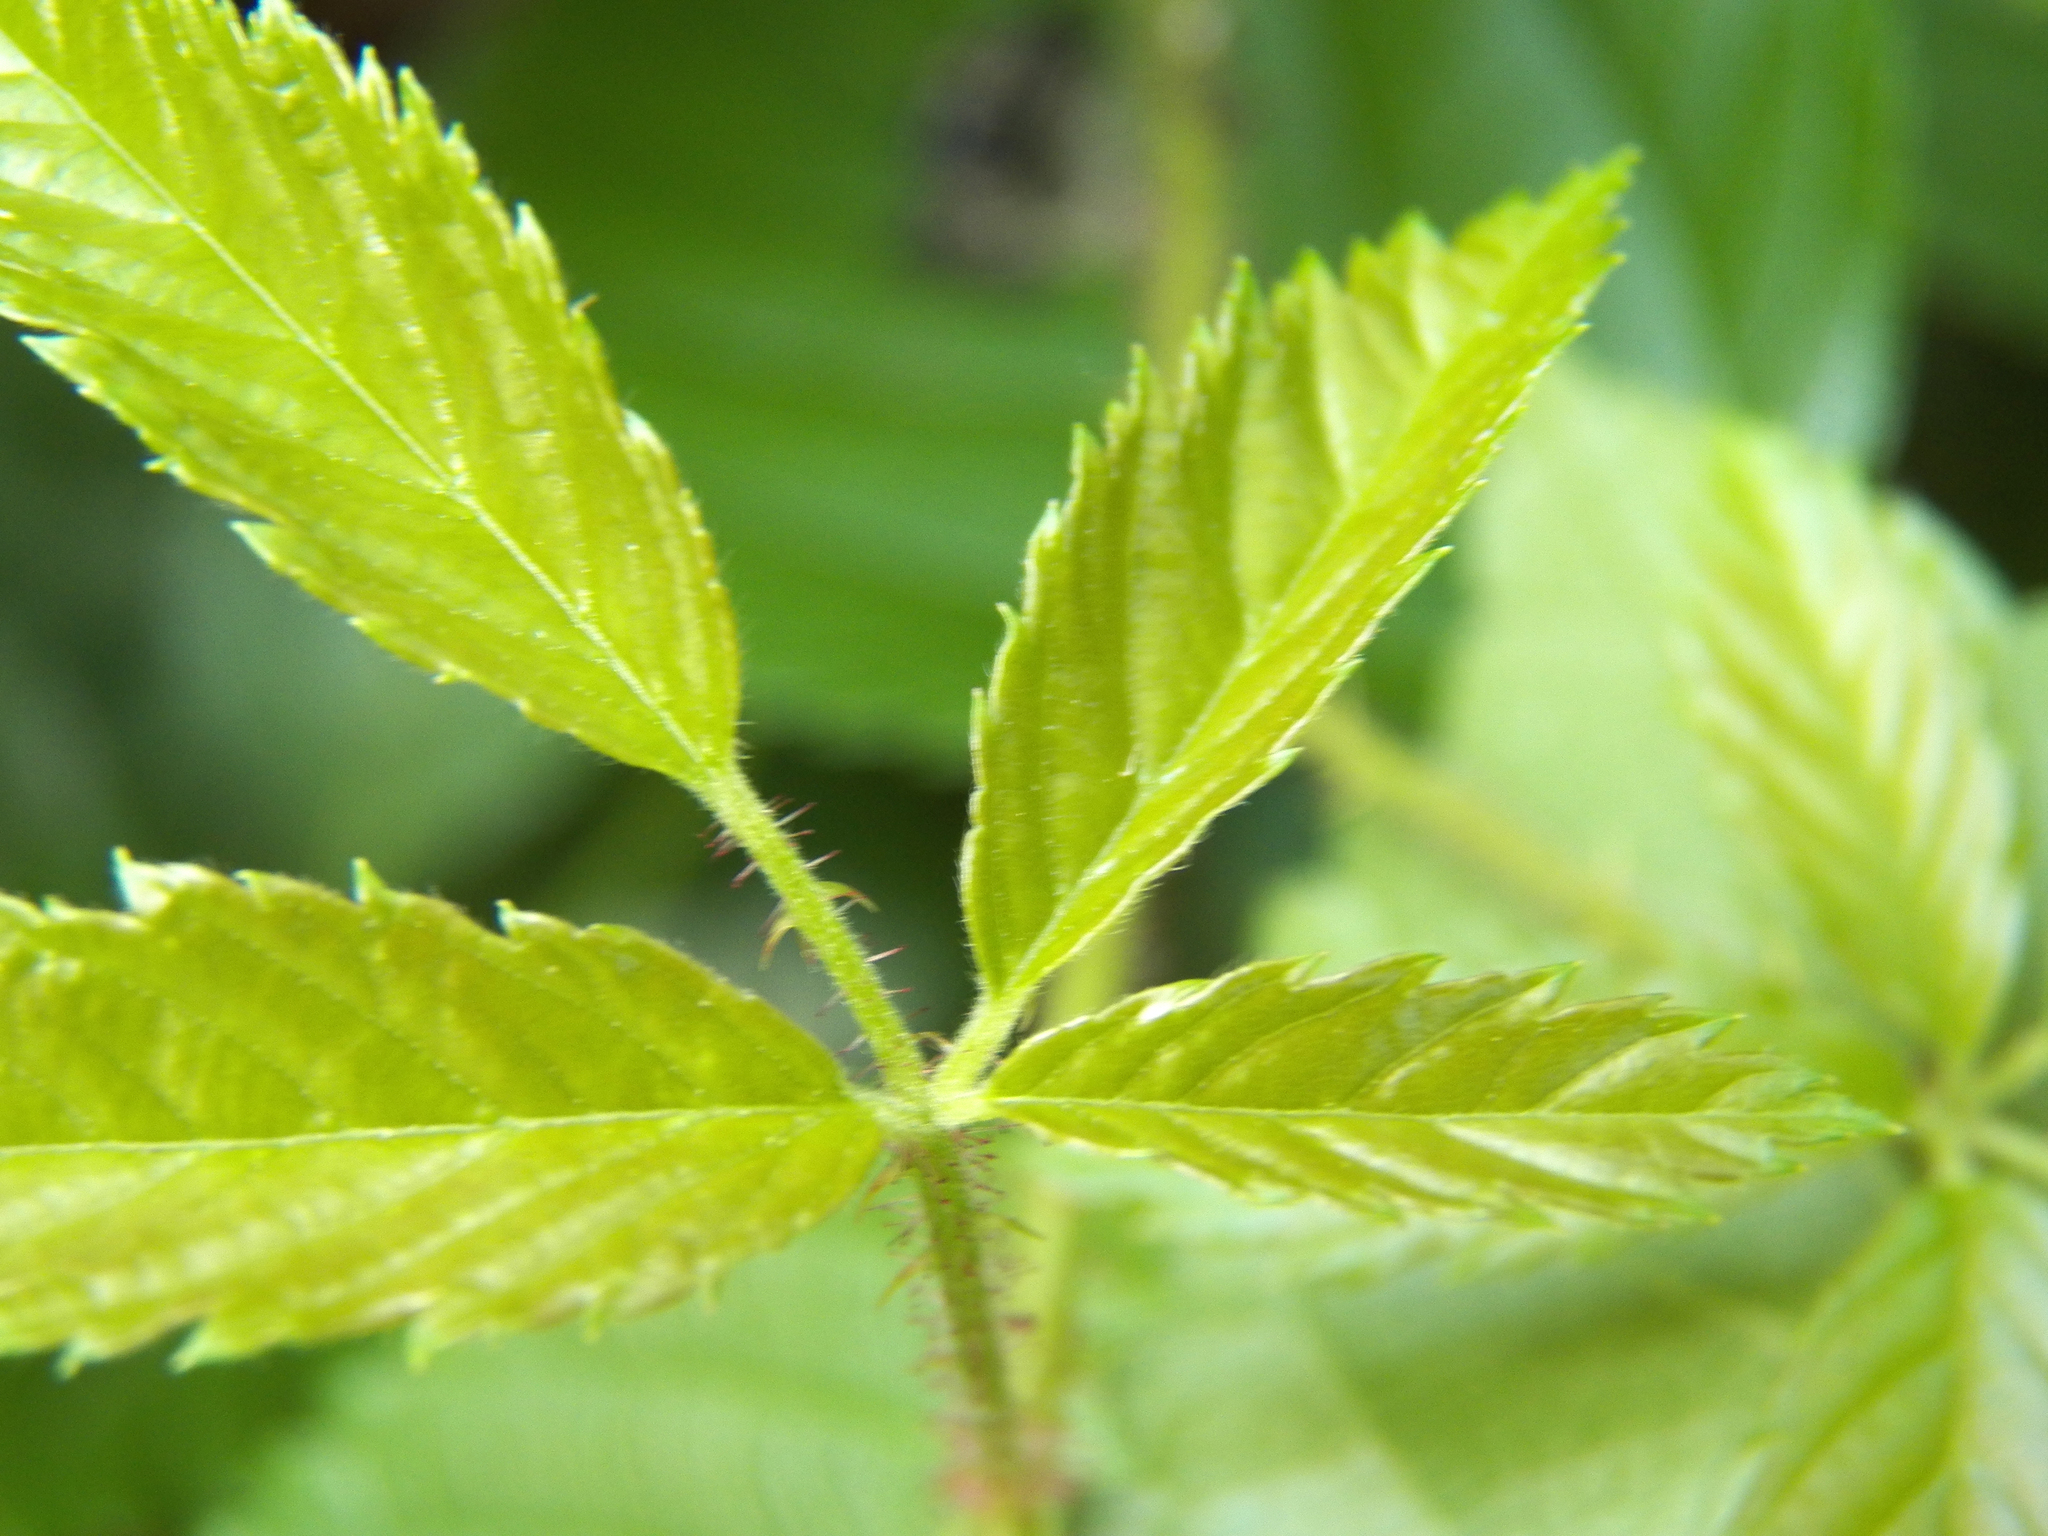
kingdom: Plantae
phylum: Tracheophyta
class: Magnoliopsida
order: Rosales
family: Rosaceae
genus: Rubus
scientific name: Rubus trivialis
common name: Southern dewberry
